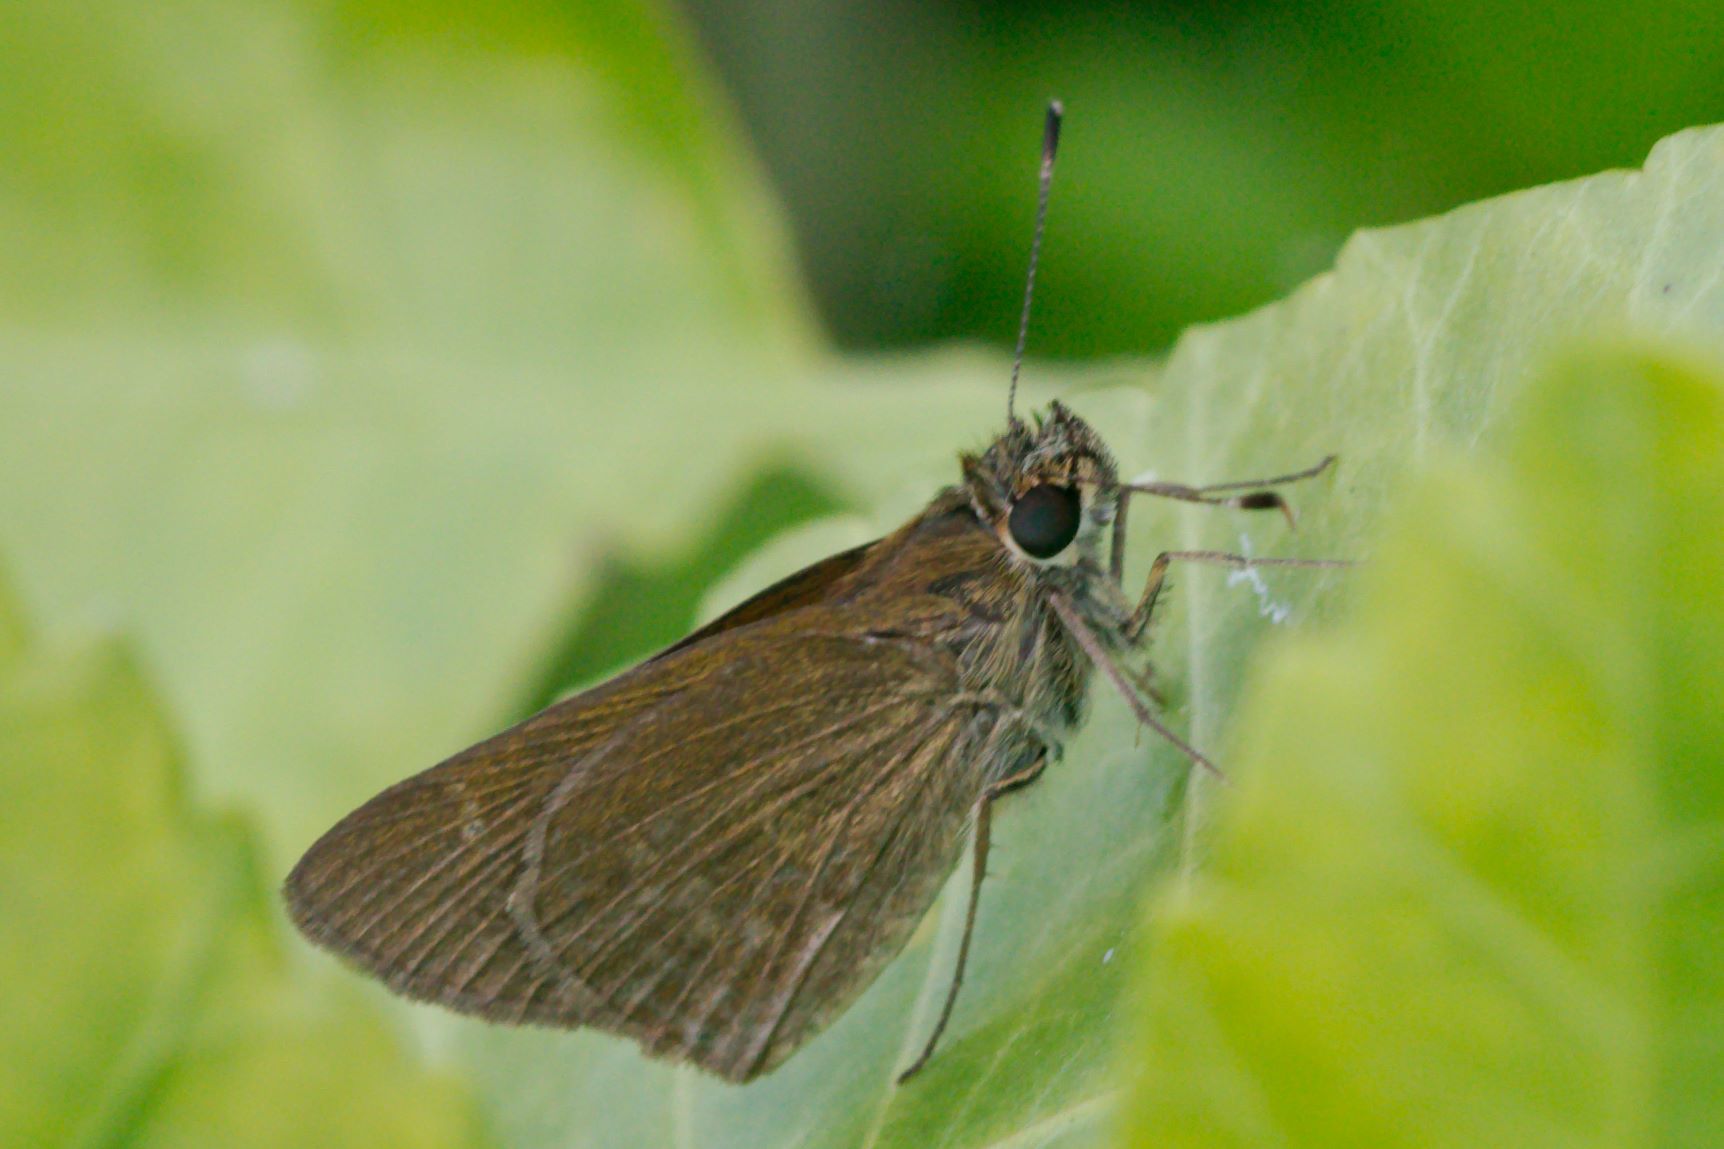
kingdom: Animalia
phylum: Arthropoda
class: Insecta
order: Lepidoptera
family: Hesperiidae
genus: Cymaenes
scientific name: Cymaenes tripunctus
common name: Dingy dotted skipper
